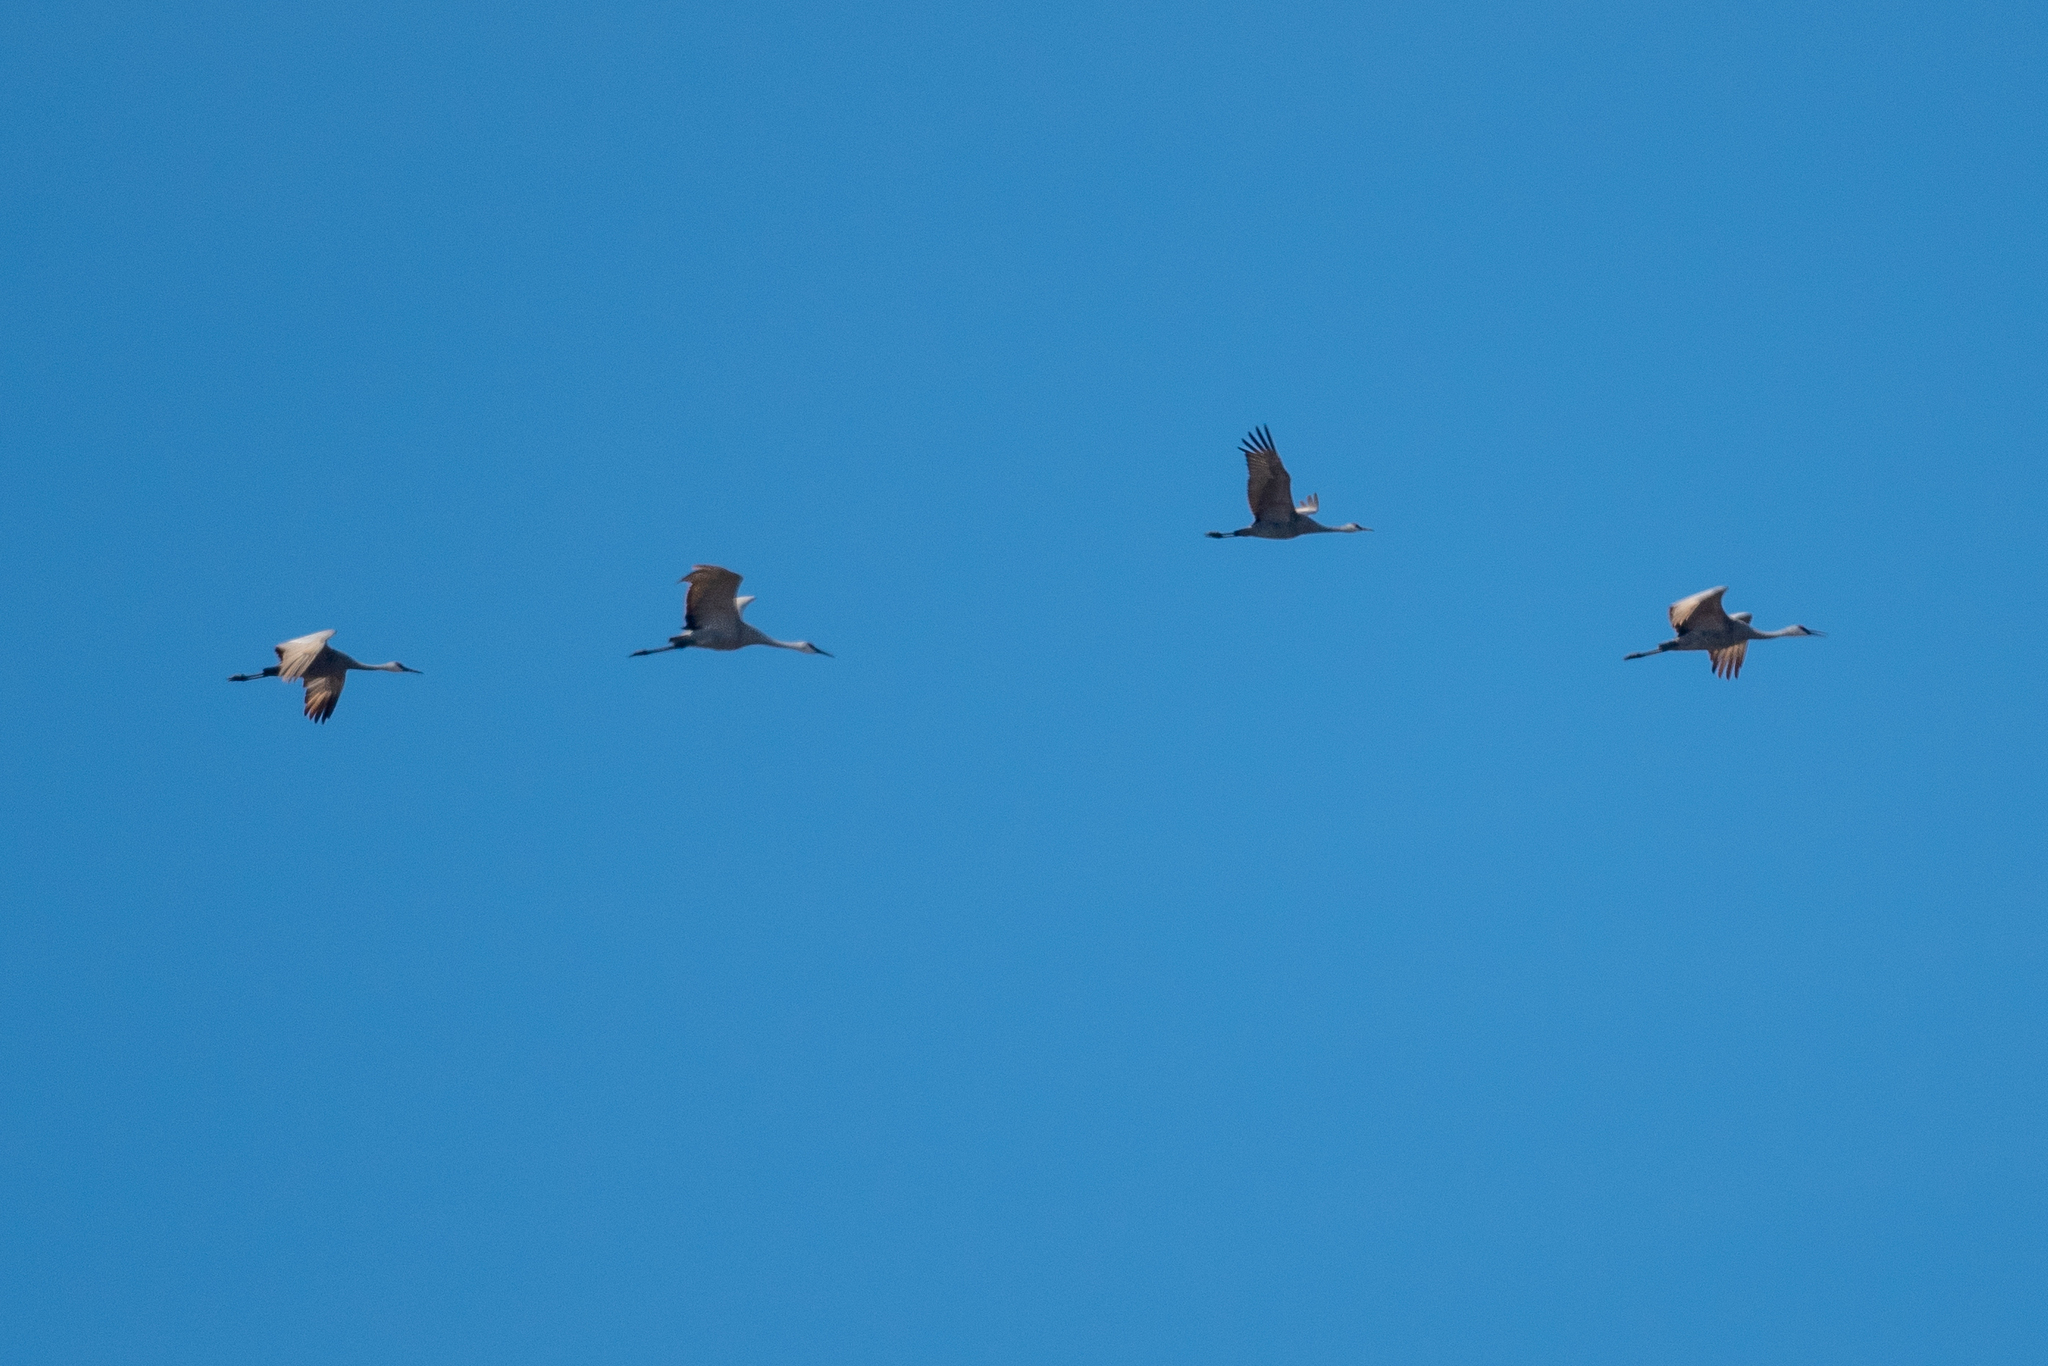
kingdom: Animalia
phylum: Chordata
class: Aves
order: Gruiformes
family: Gruidae
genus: Grus
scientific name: Grus canadensis
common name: Sandhill crane
